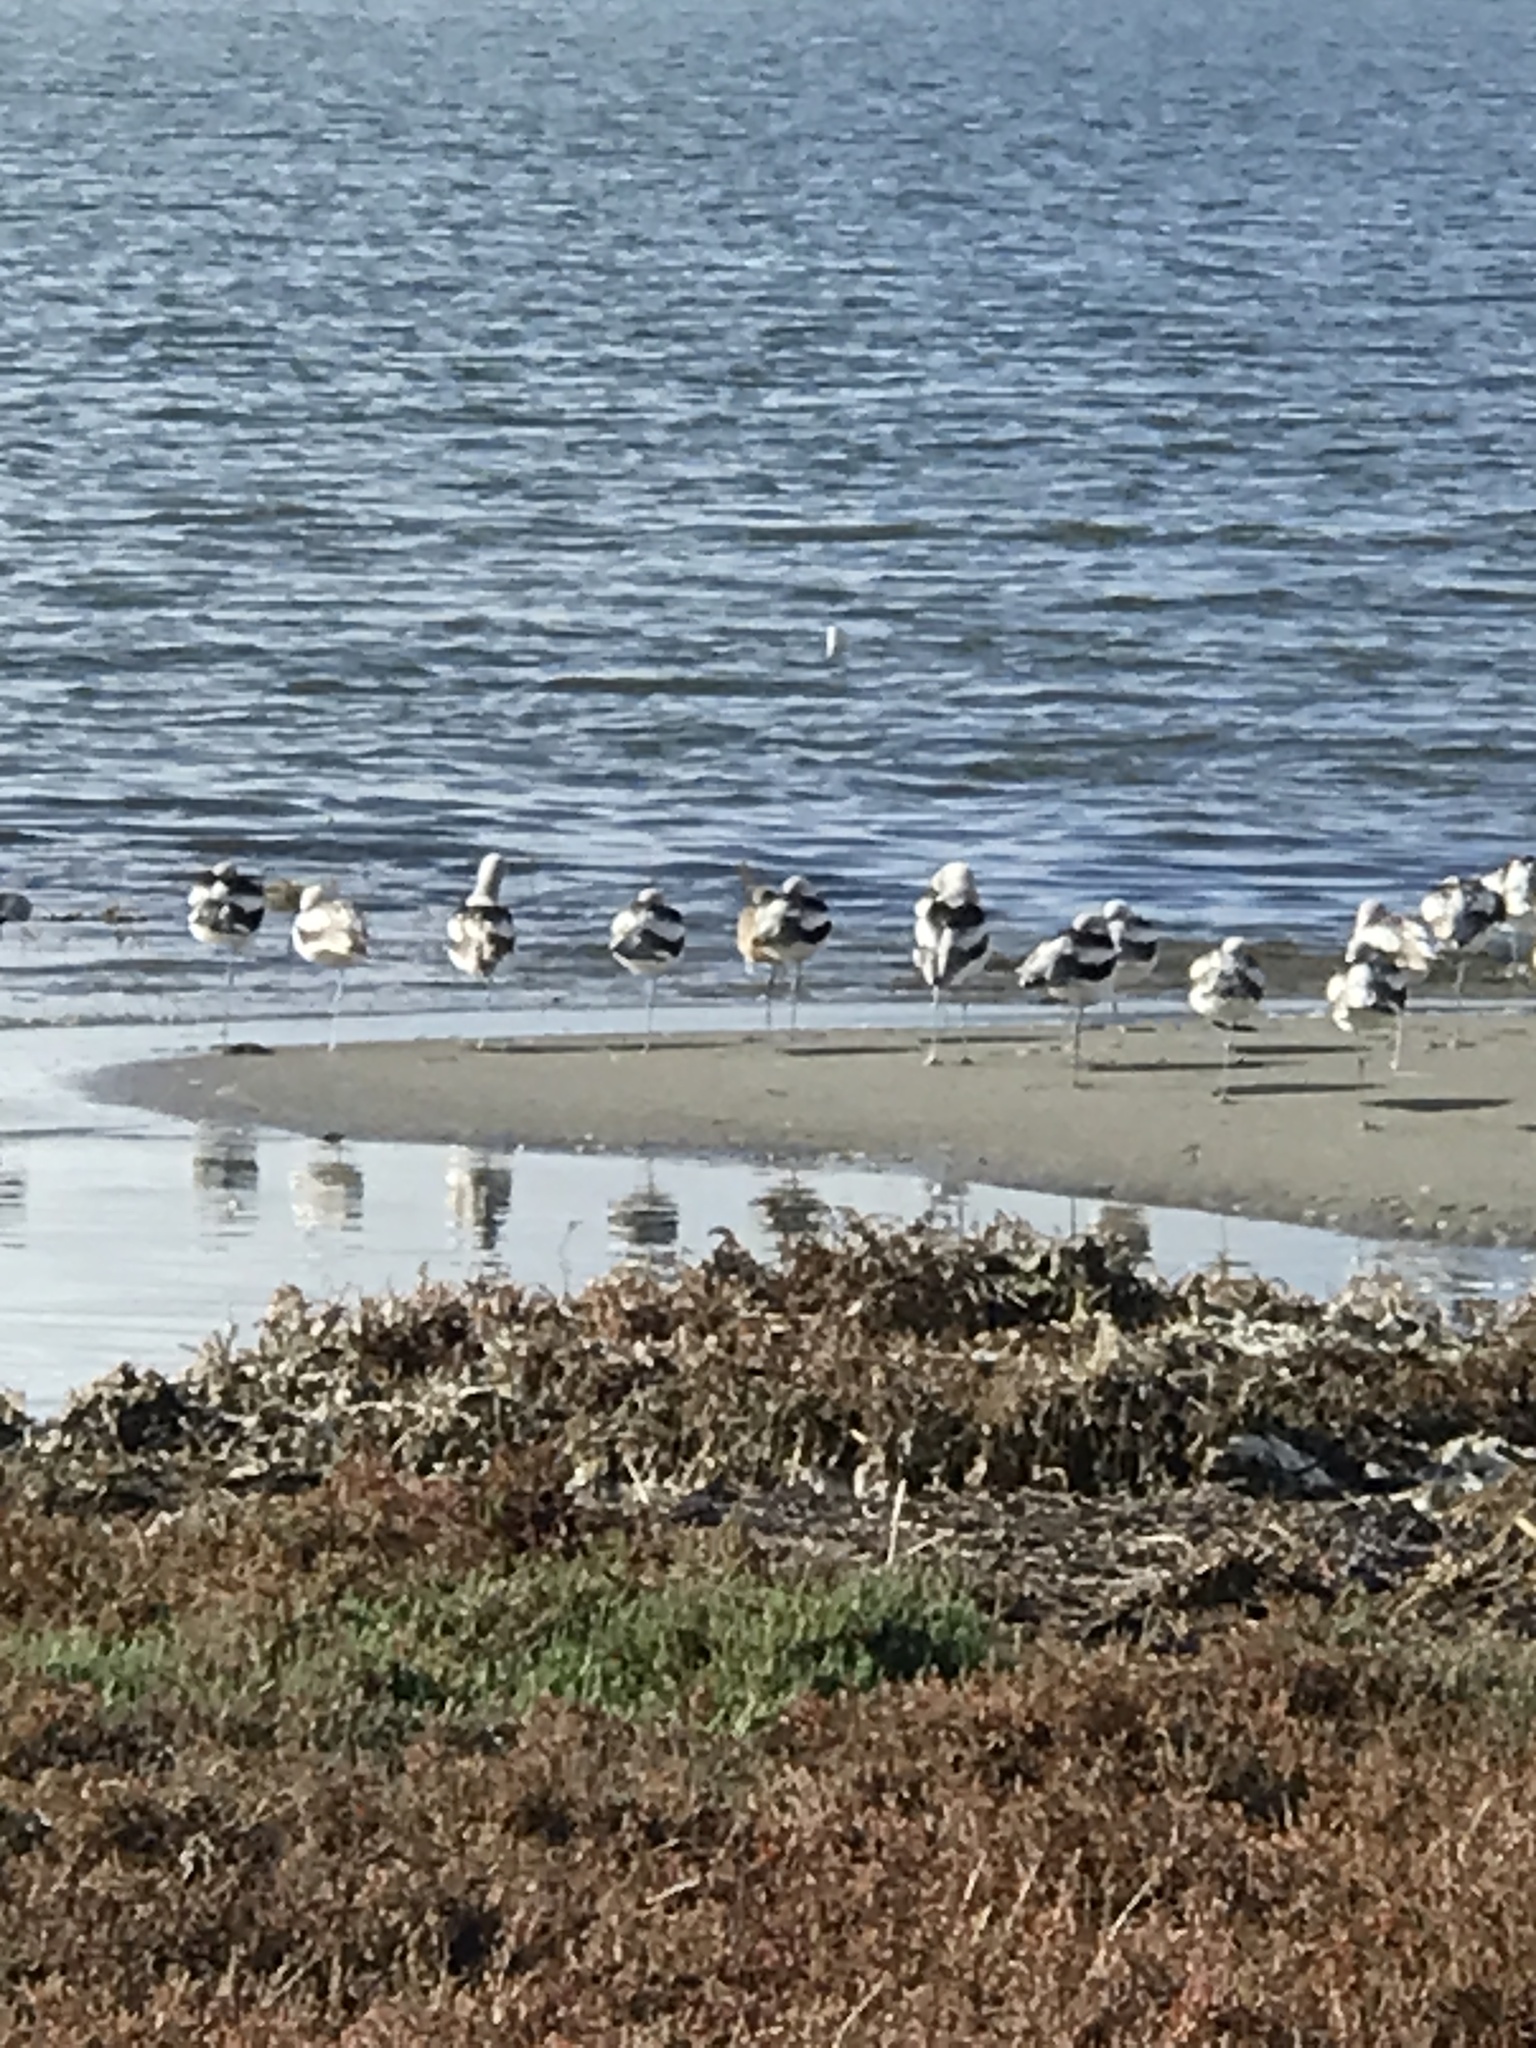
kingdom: Animalia
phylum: Chordata
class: Aves
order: Charadriiformes
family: Recurvirostridae
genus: Recurvirostra
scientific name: Recurvirostra americana
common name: American avocet
